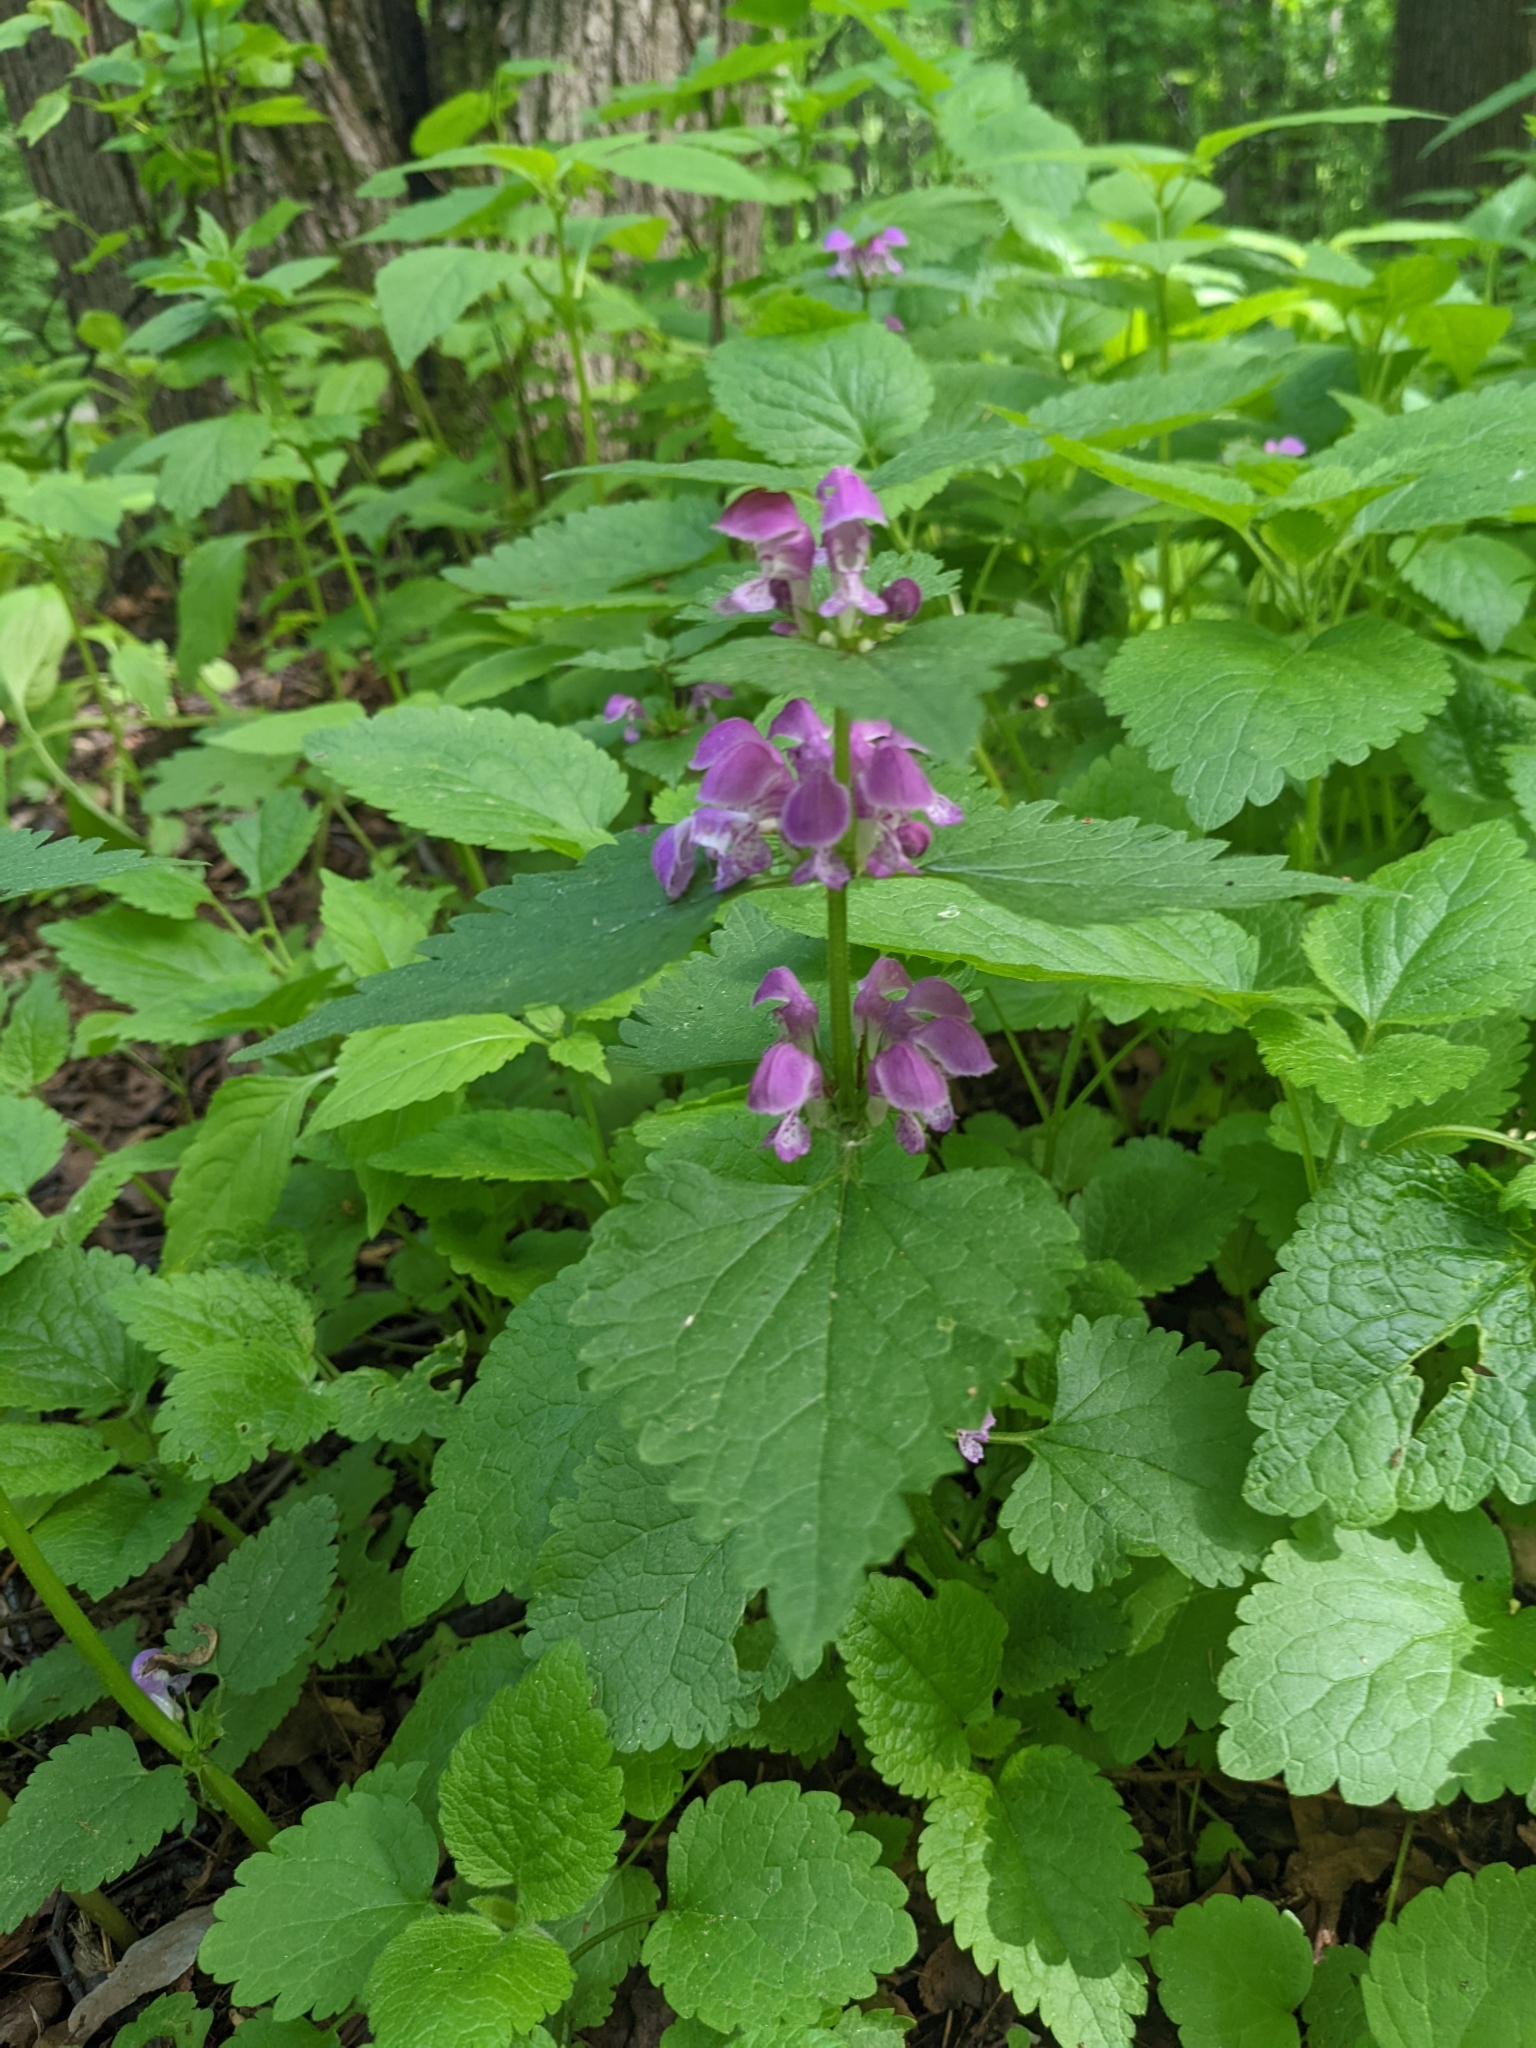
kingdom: Plantae
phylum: Tracheophyta
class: Magnoliopsida
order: Lamiales
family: Lamiaceae
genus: Lamium
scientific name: Lamium maculatum
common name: Spotted dead-nettle
